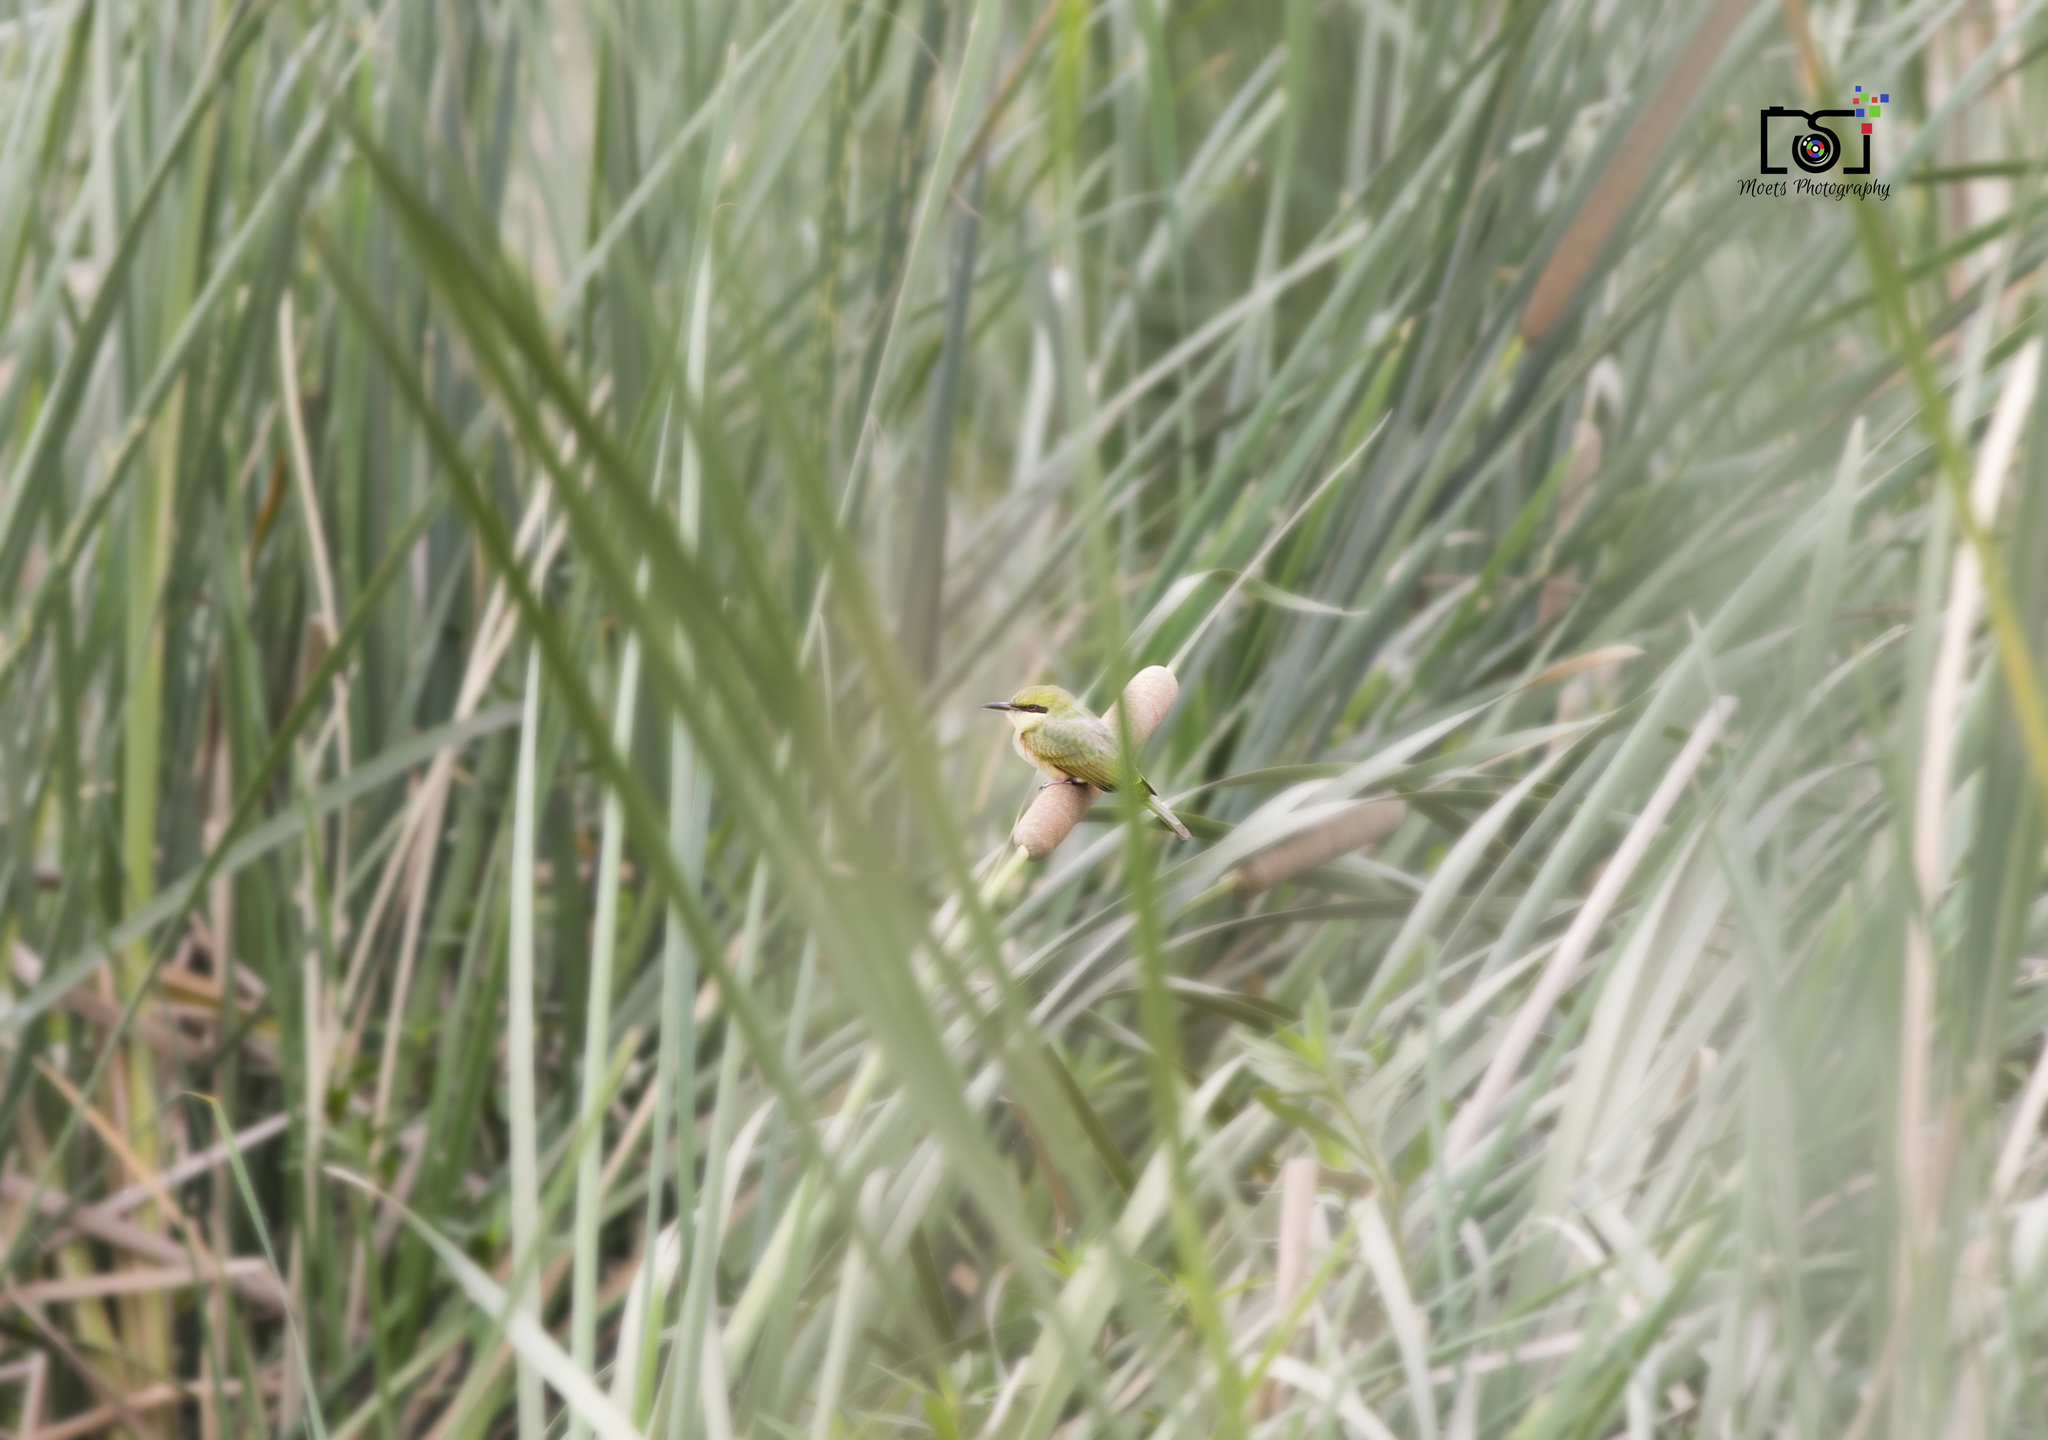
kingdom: Animalia
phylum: Chordata
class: Aves
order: Coraciiformes
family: Meropidae
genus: Merops
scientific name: Merops orientalis
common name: Green bee-eater
